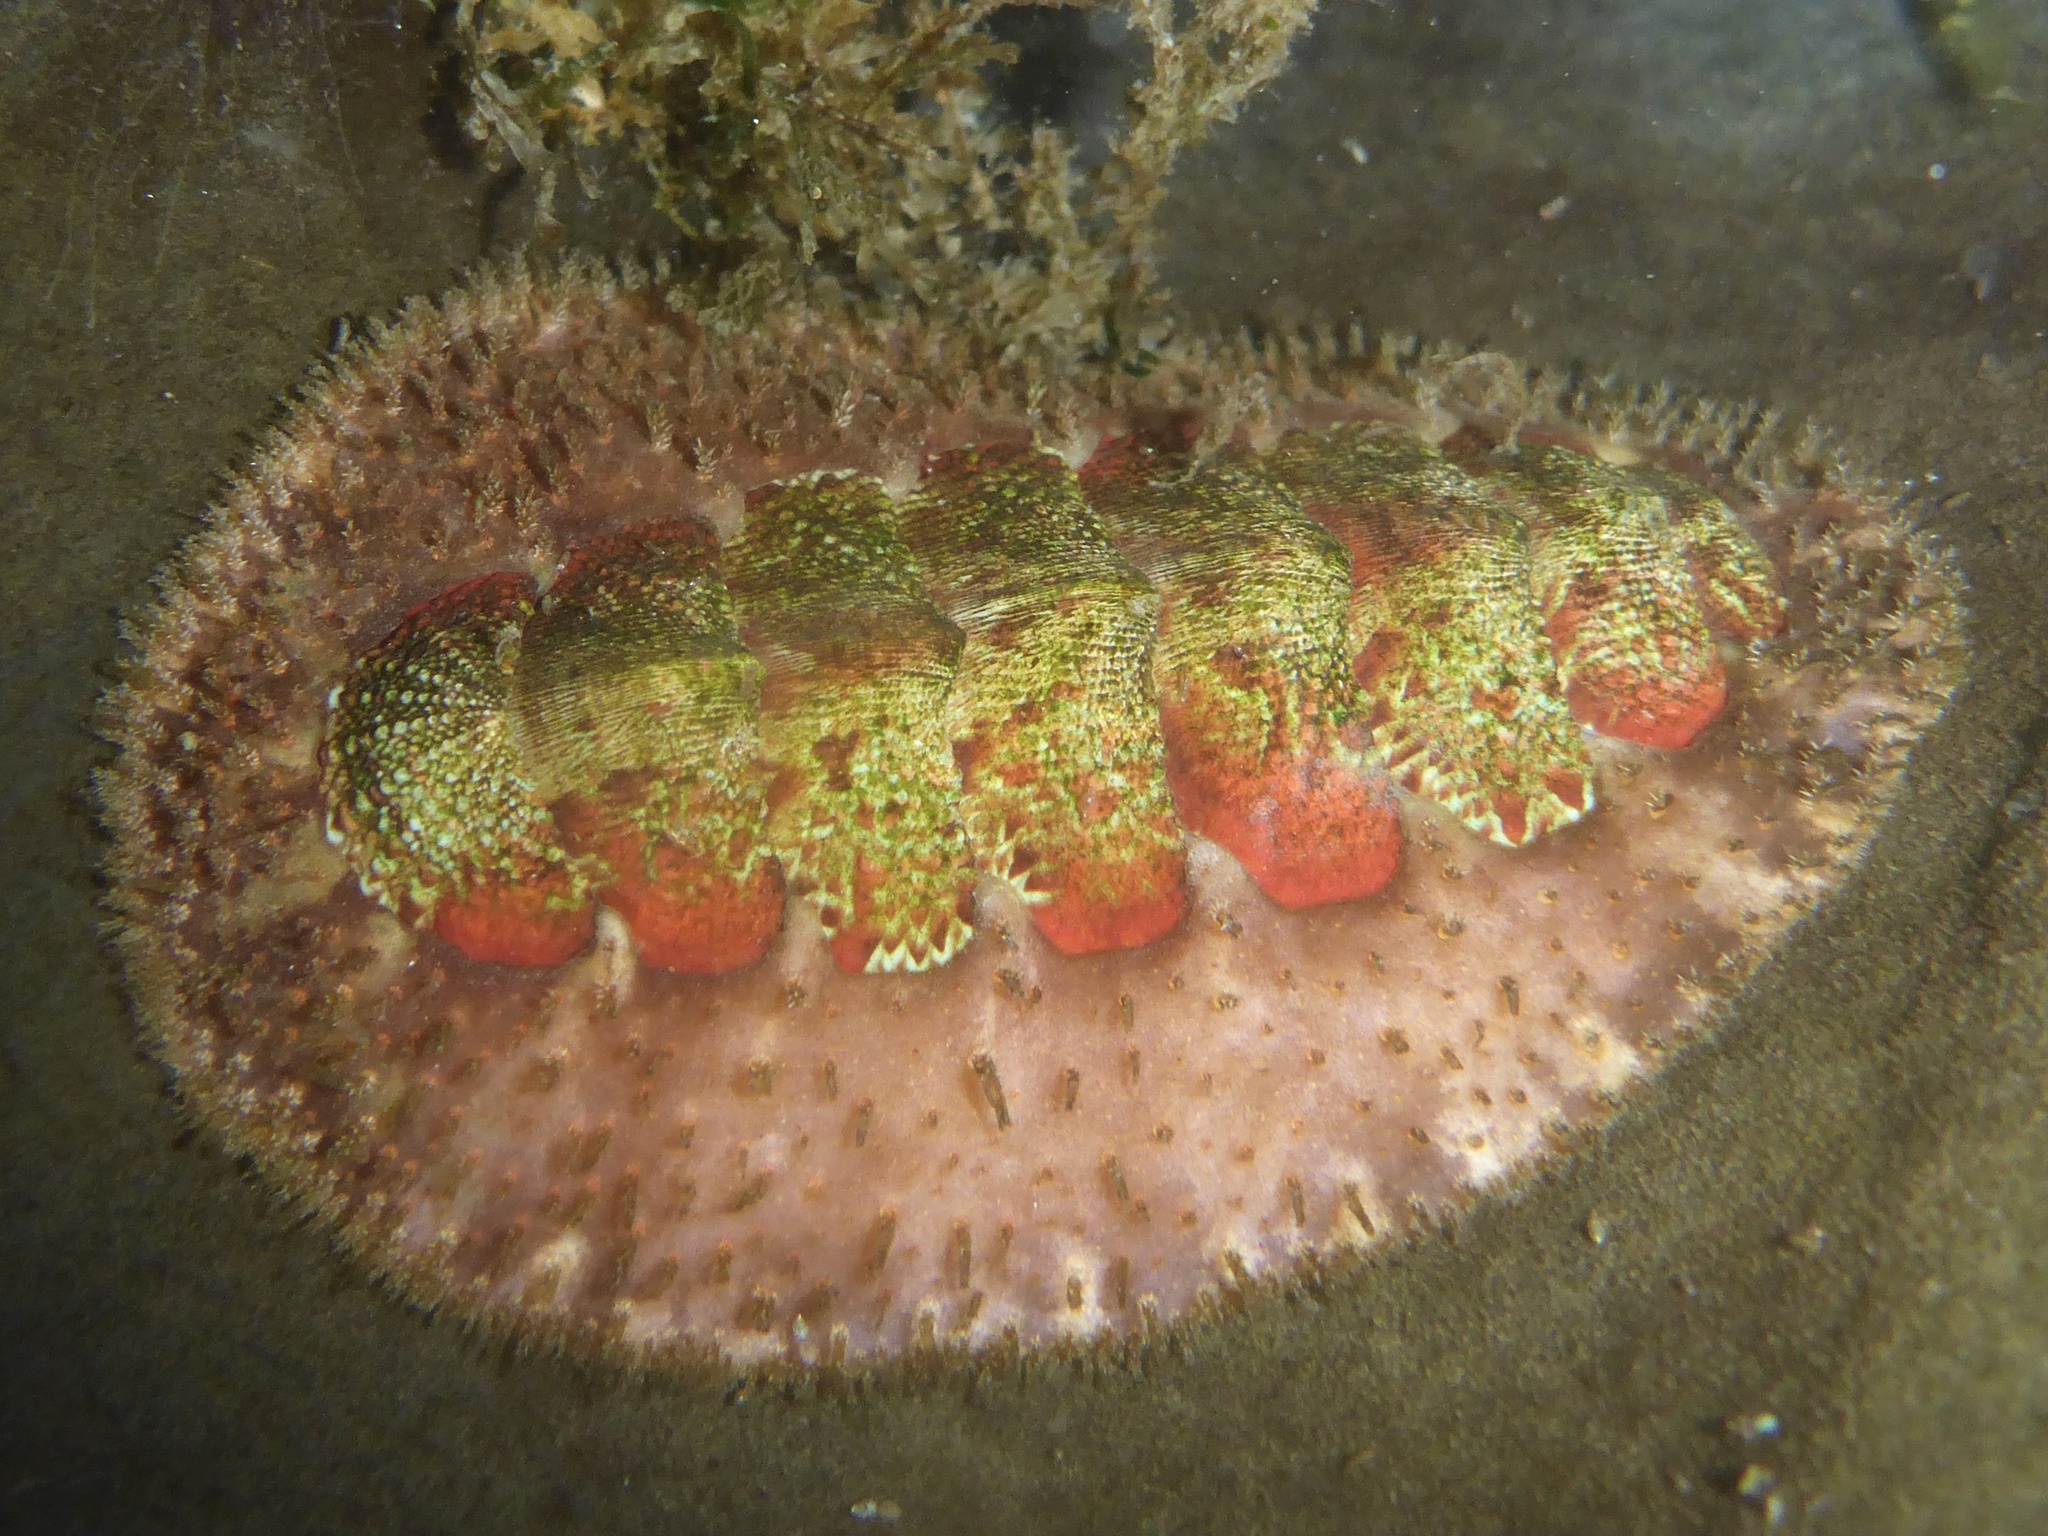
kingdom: Animalia
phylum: Mollusca
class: Polyplacophora
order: Chitonida
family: Mopaliidae
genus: Mopalia
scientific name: Mopalia spectabilis
